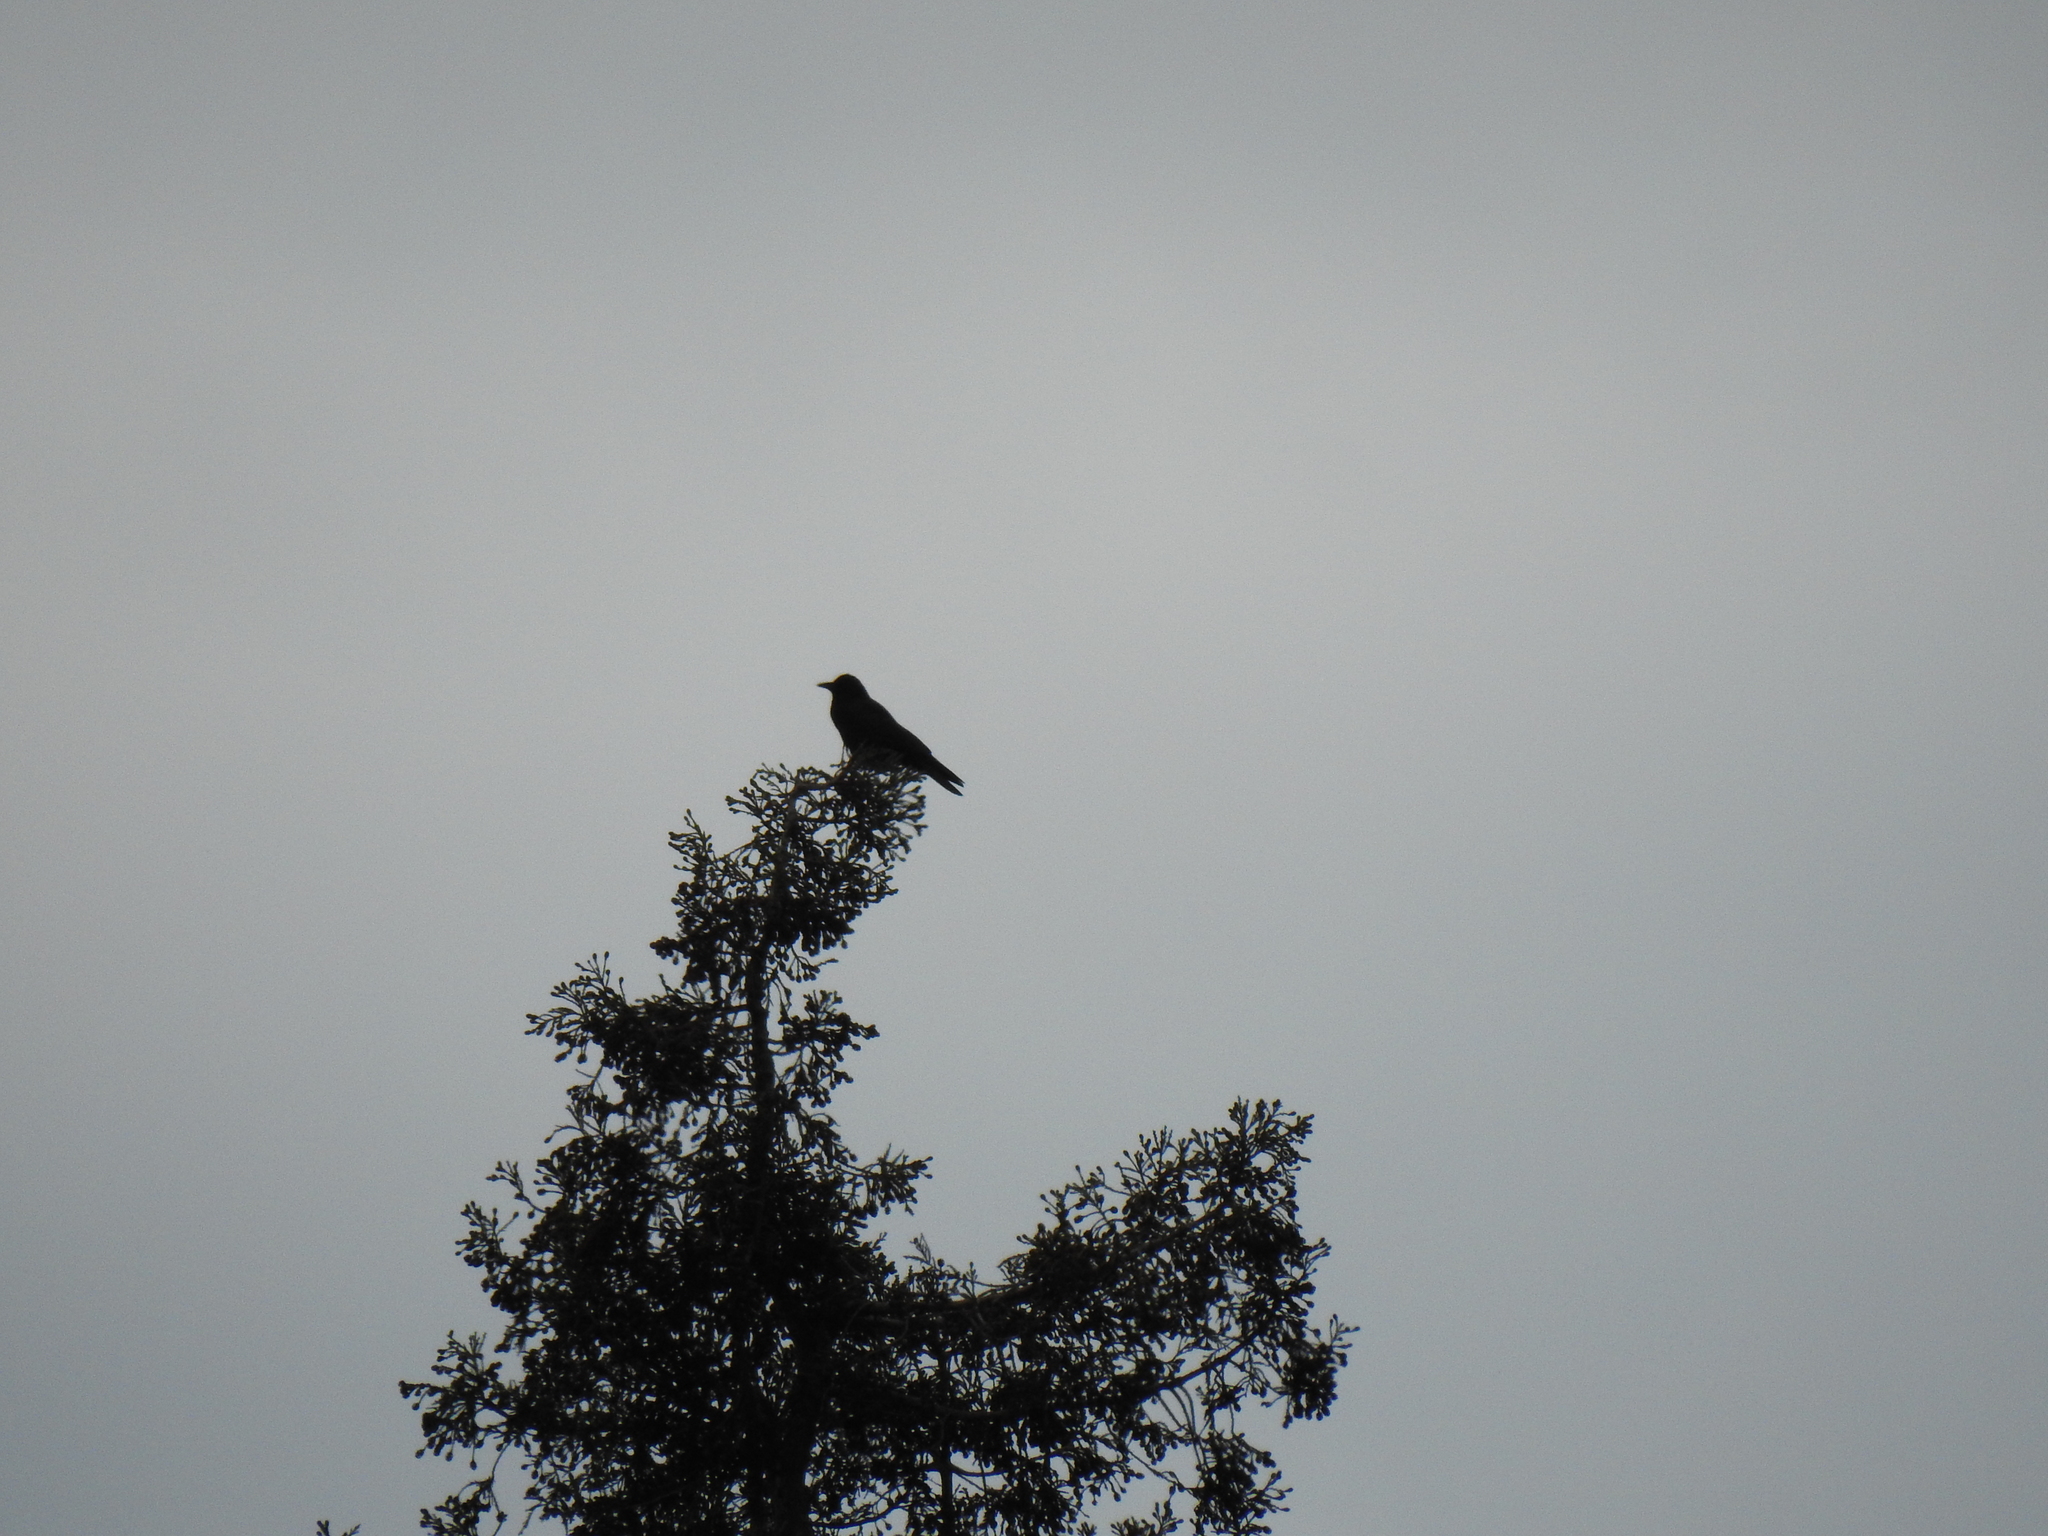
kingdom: Animalia
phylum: Chordata
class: Aves
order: Passeriformes
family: Corvidae
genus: Corvus
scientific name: Corvus brachyrhynchos
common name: American crow
